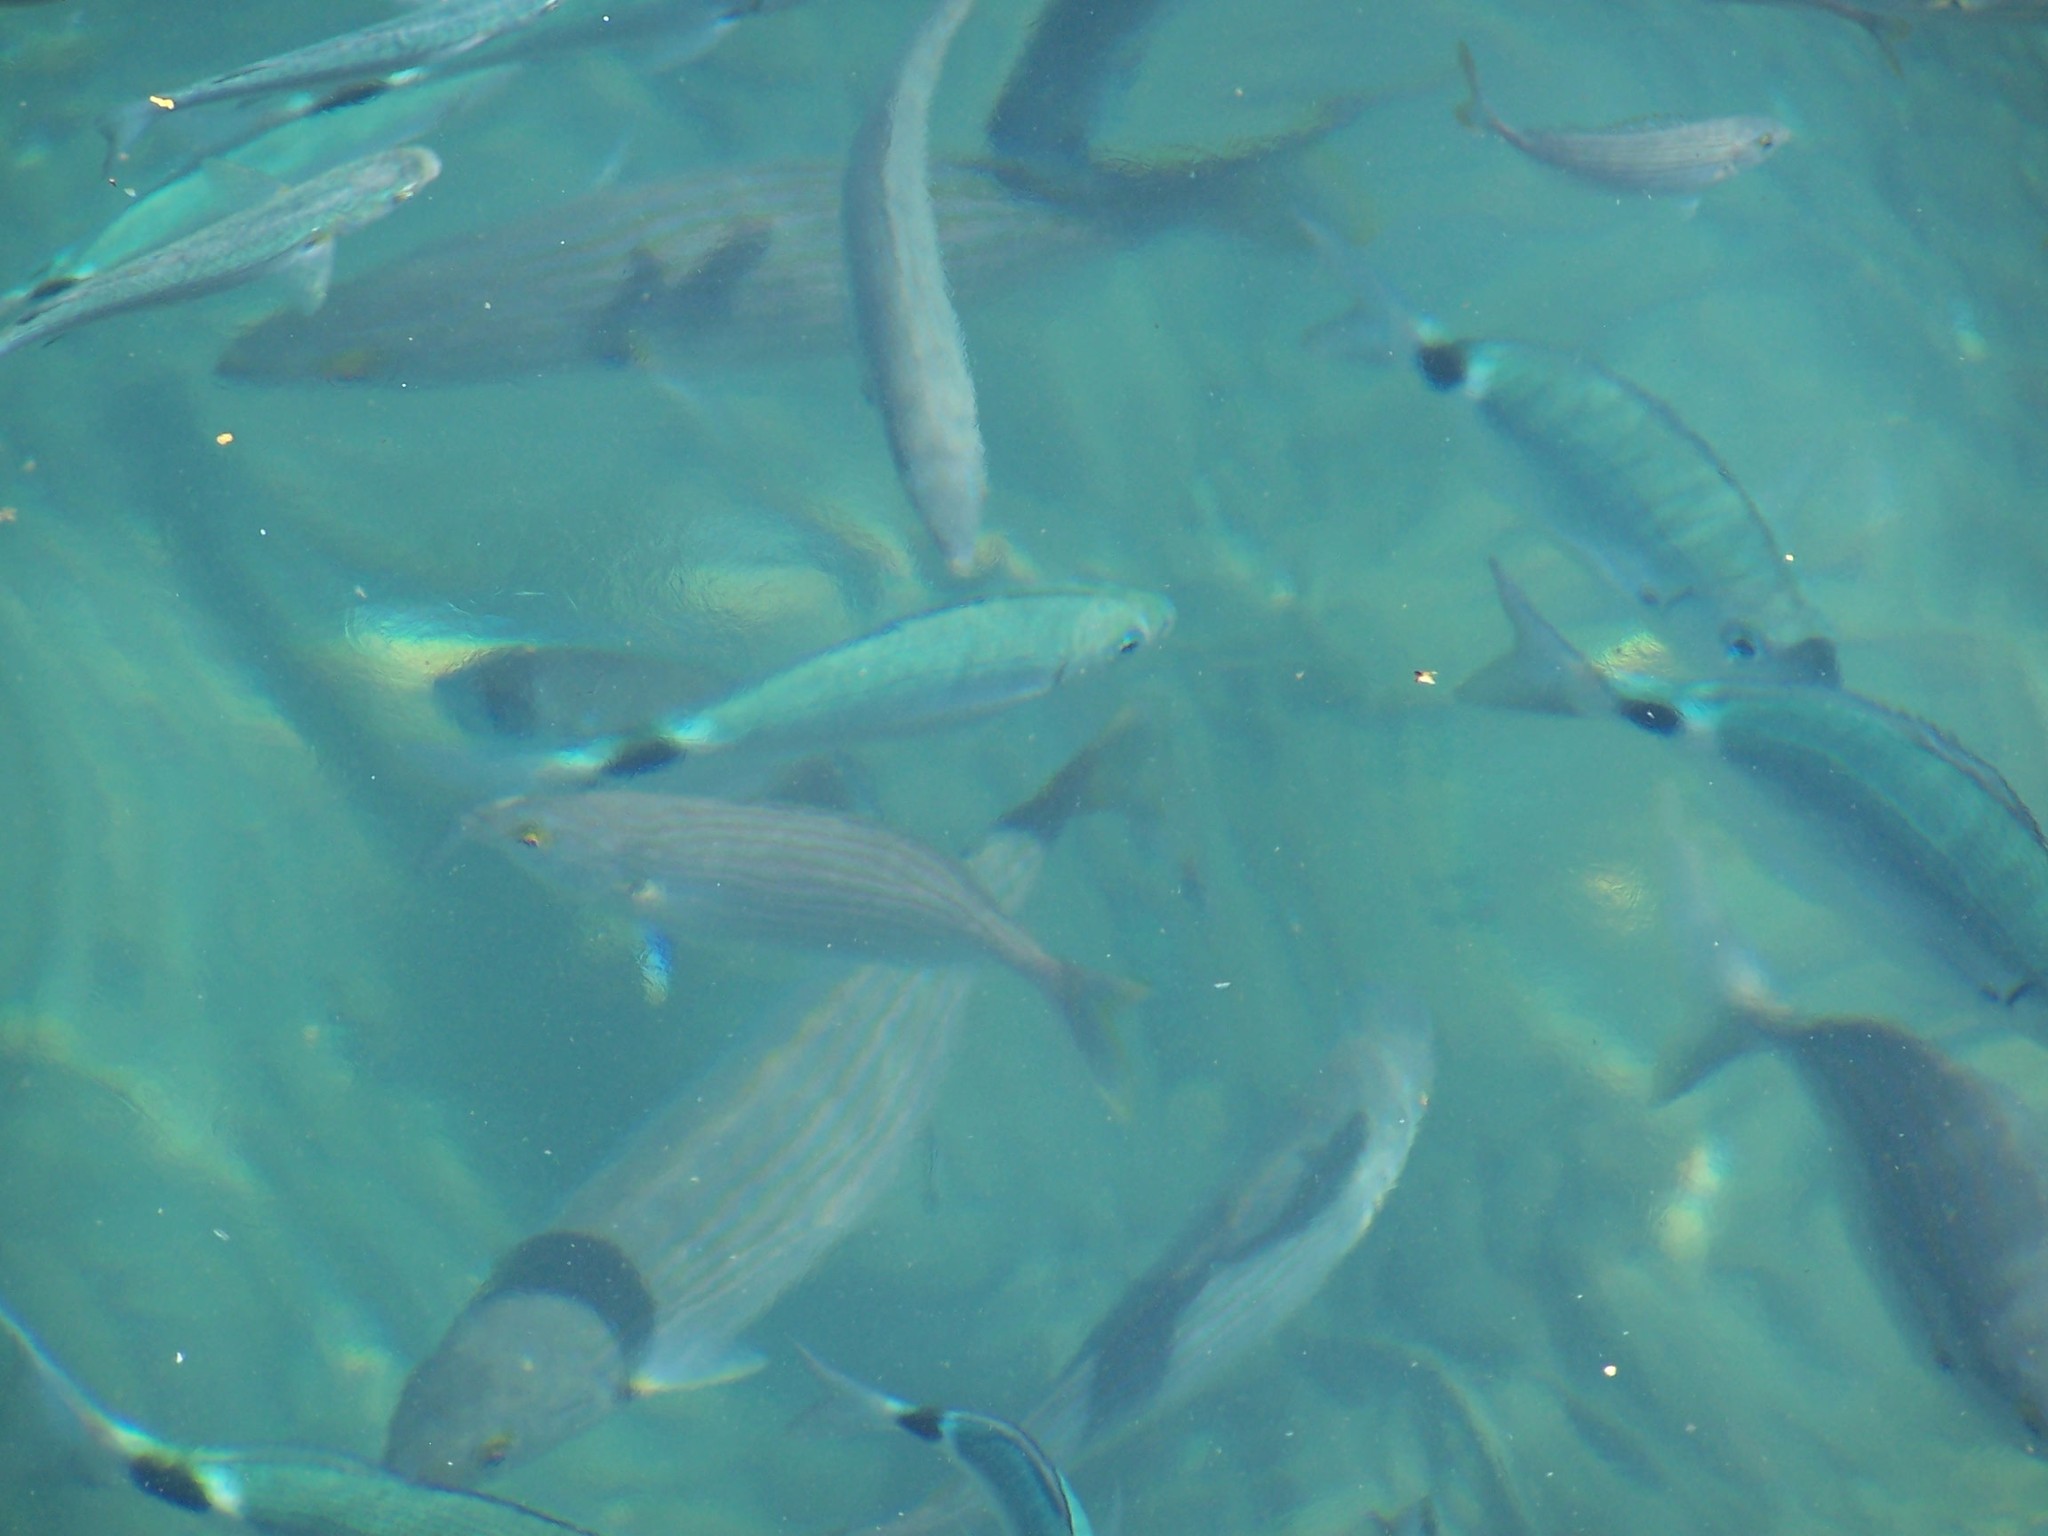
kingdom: Animalia
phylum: Chordata
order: Perciformes
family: Sparidae
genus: Oblada
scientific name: Oblada melanura
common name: Saddled seabream
